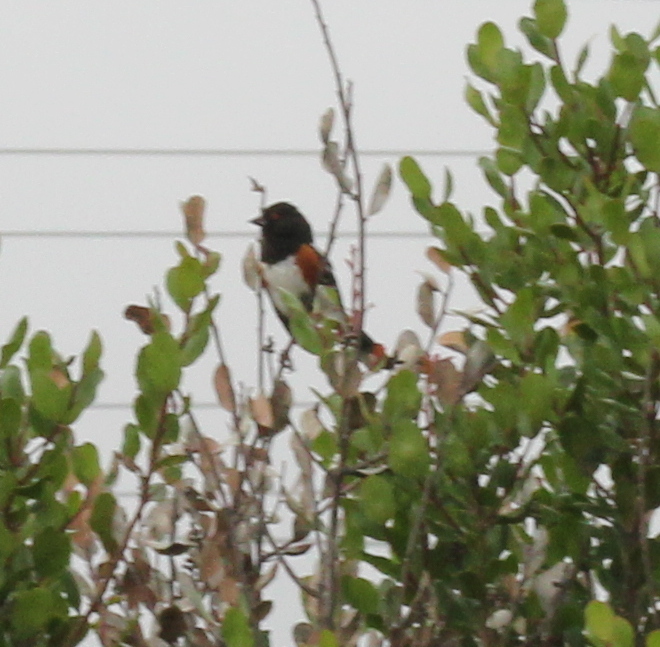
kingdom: Animalia
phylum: Chordata
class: Aves
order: Passeriformes
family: Passerellidae
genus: Pipilo
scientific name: Pipilo maculatus
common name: Spotted towhee
